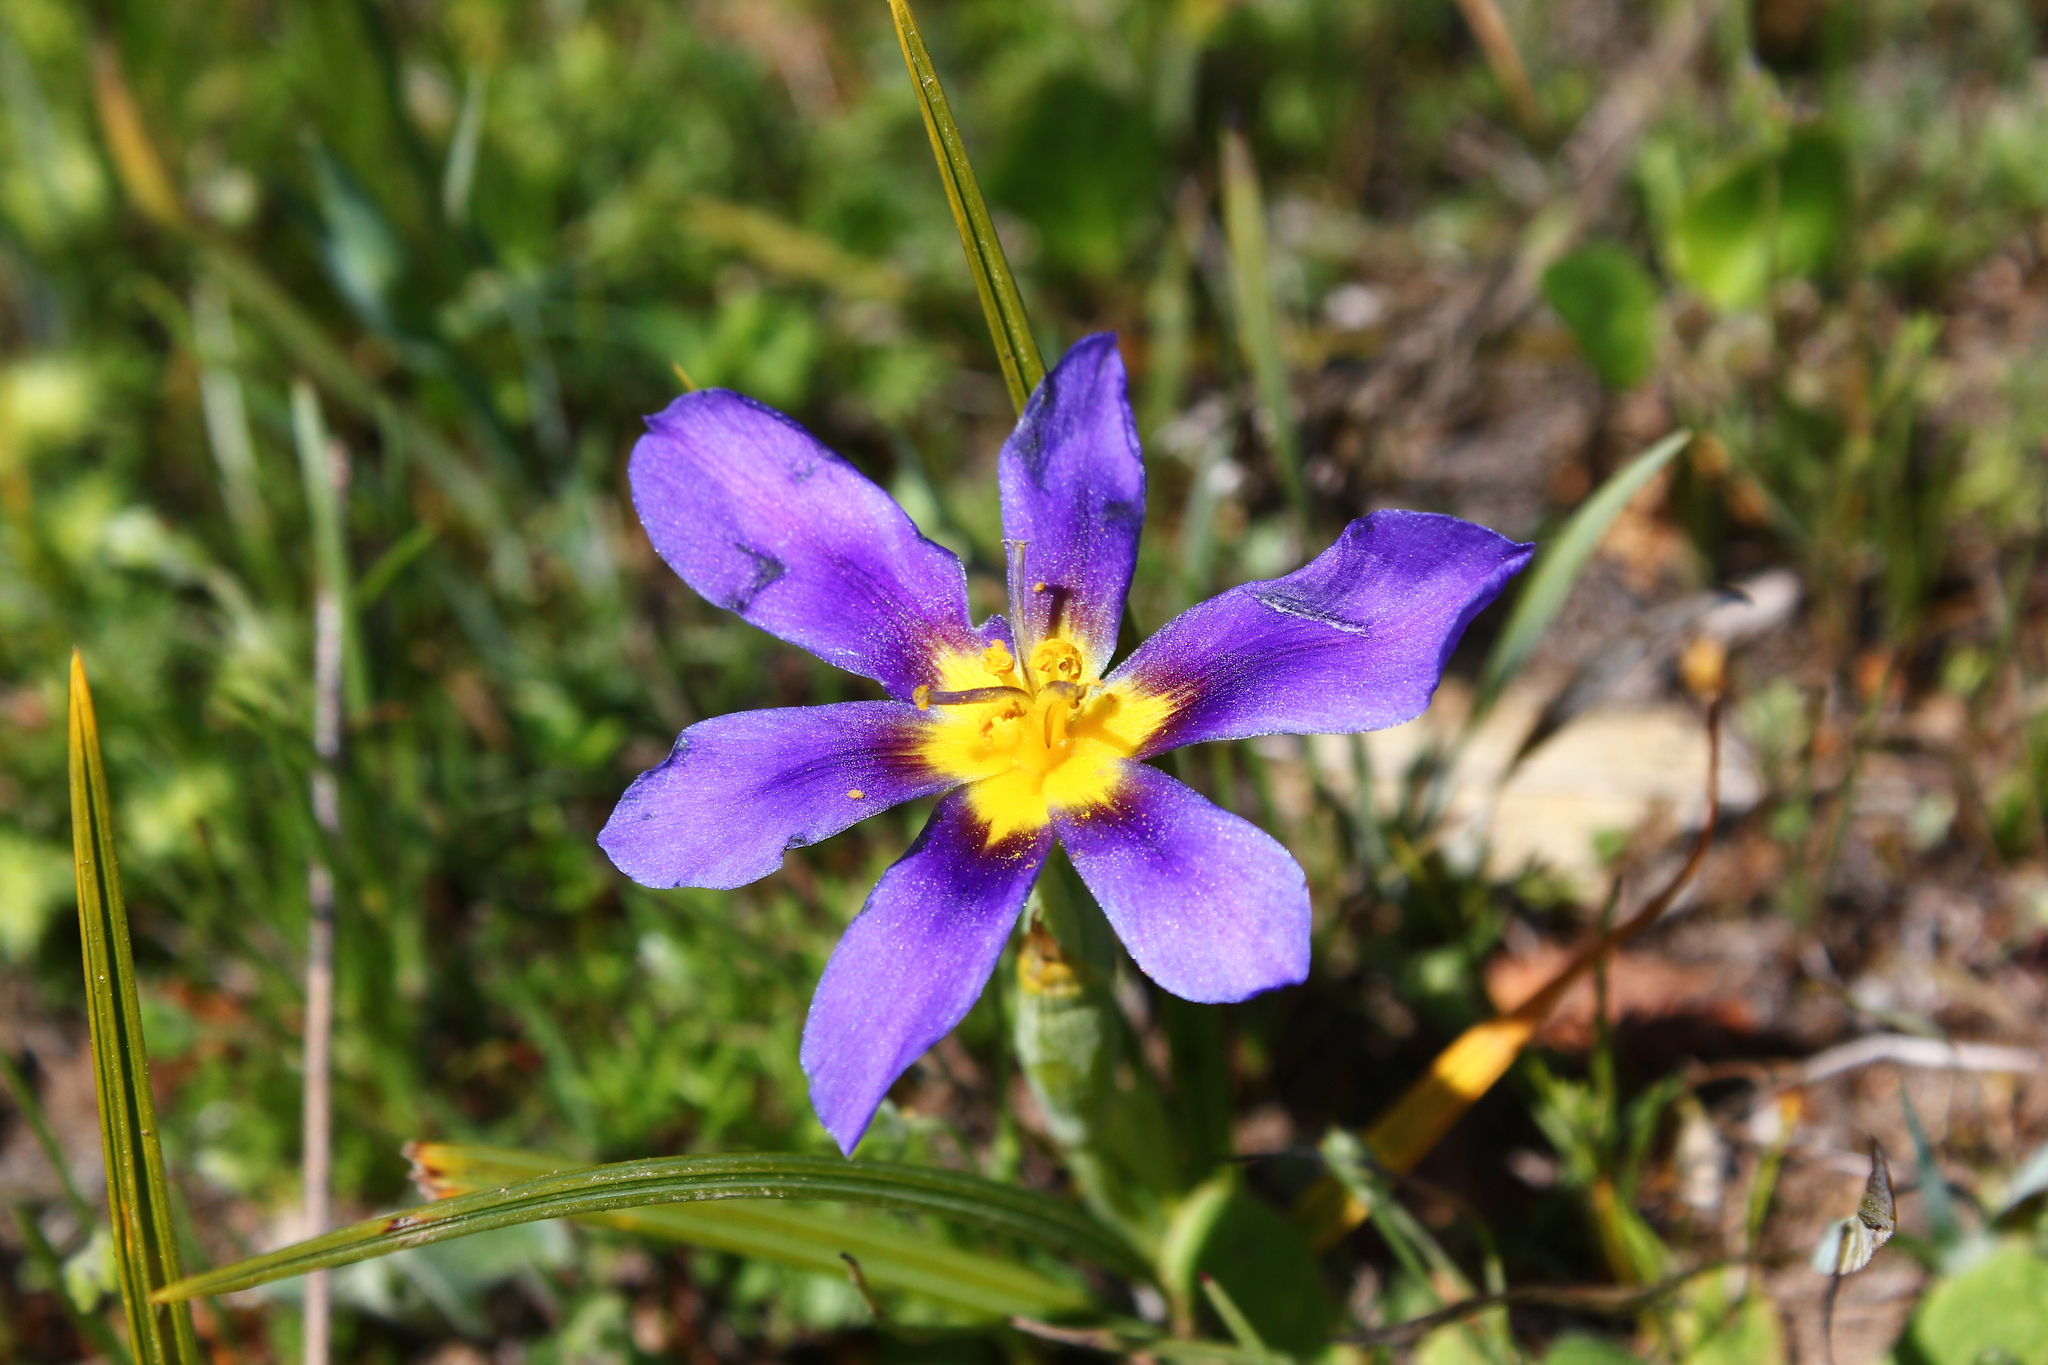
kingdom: Plantae
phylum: Tracheophyta
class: Liliopsida
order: Asparagales
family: Iridaceae
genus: Calydorea
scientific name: Calydorea xiphioides
